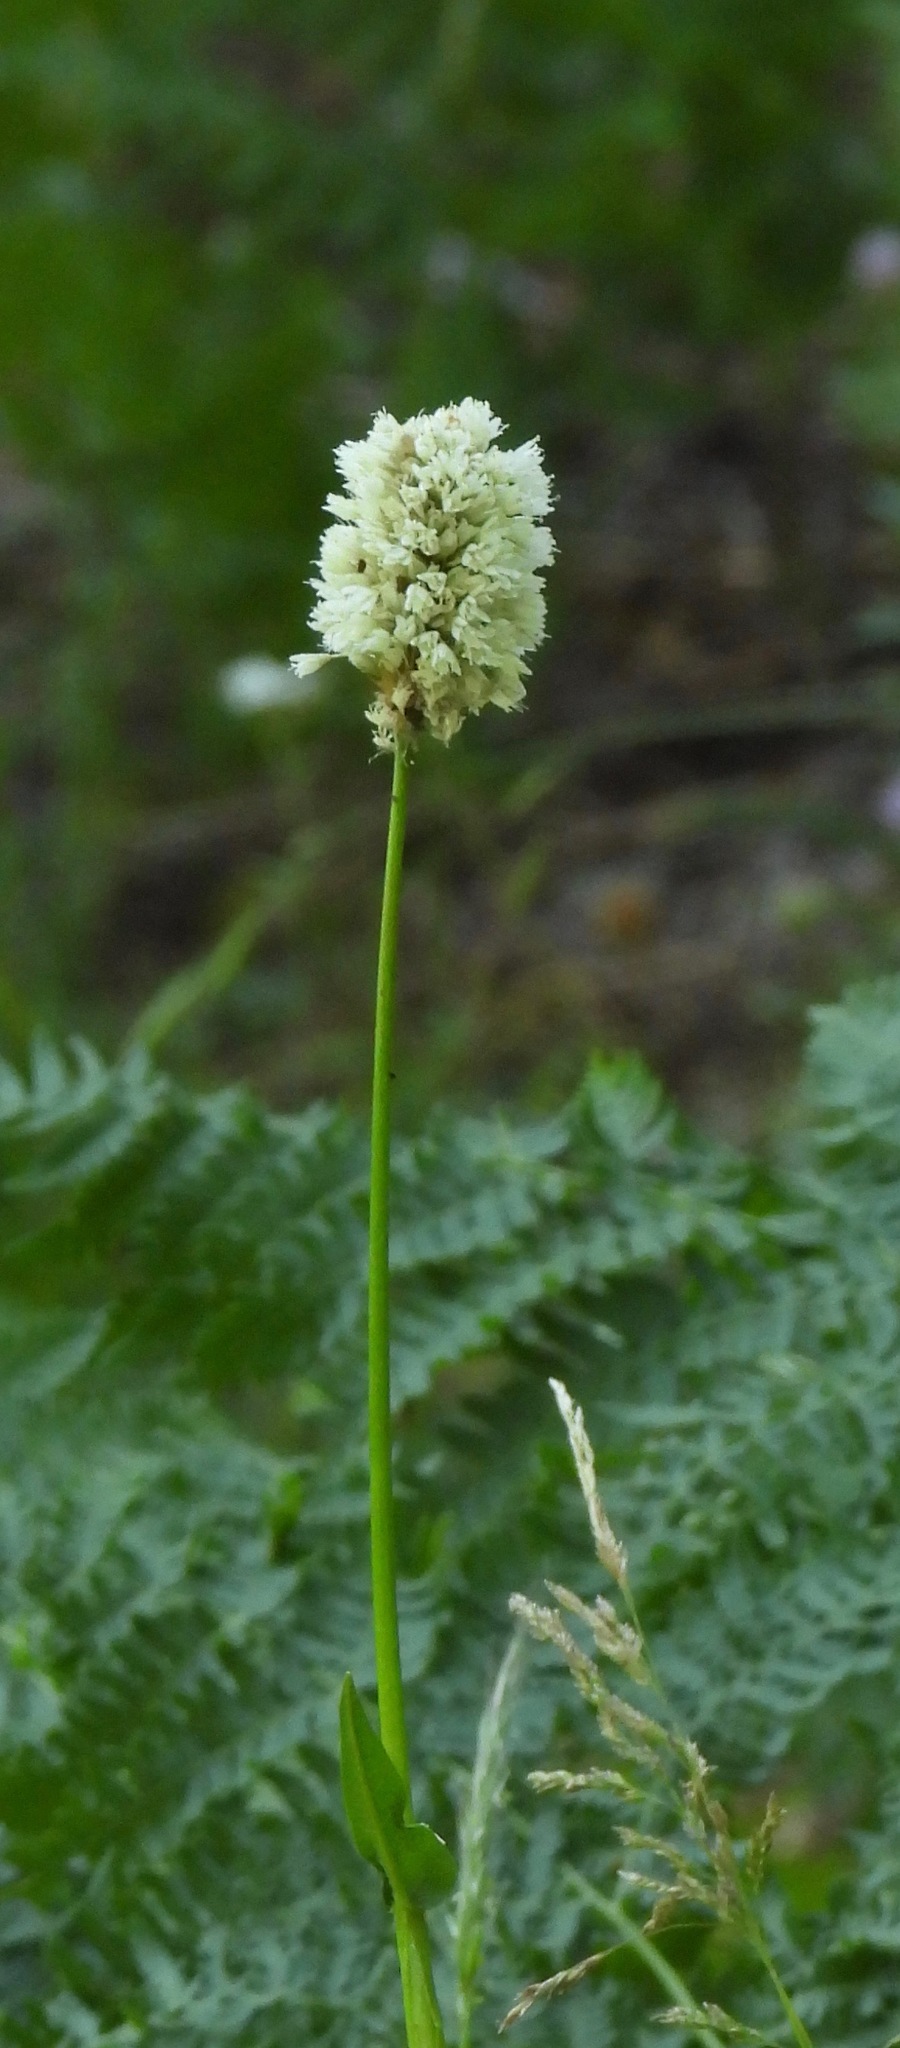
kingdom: Plantae
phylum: Tracheophyta
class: Magnoliopsida
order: Caryophyllales
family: Polygonaceae
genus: Bistorta
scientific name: Bistorta bistortoides
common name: American bistort
